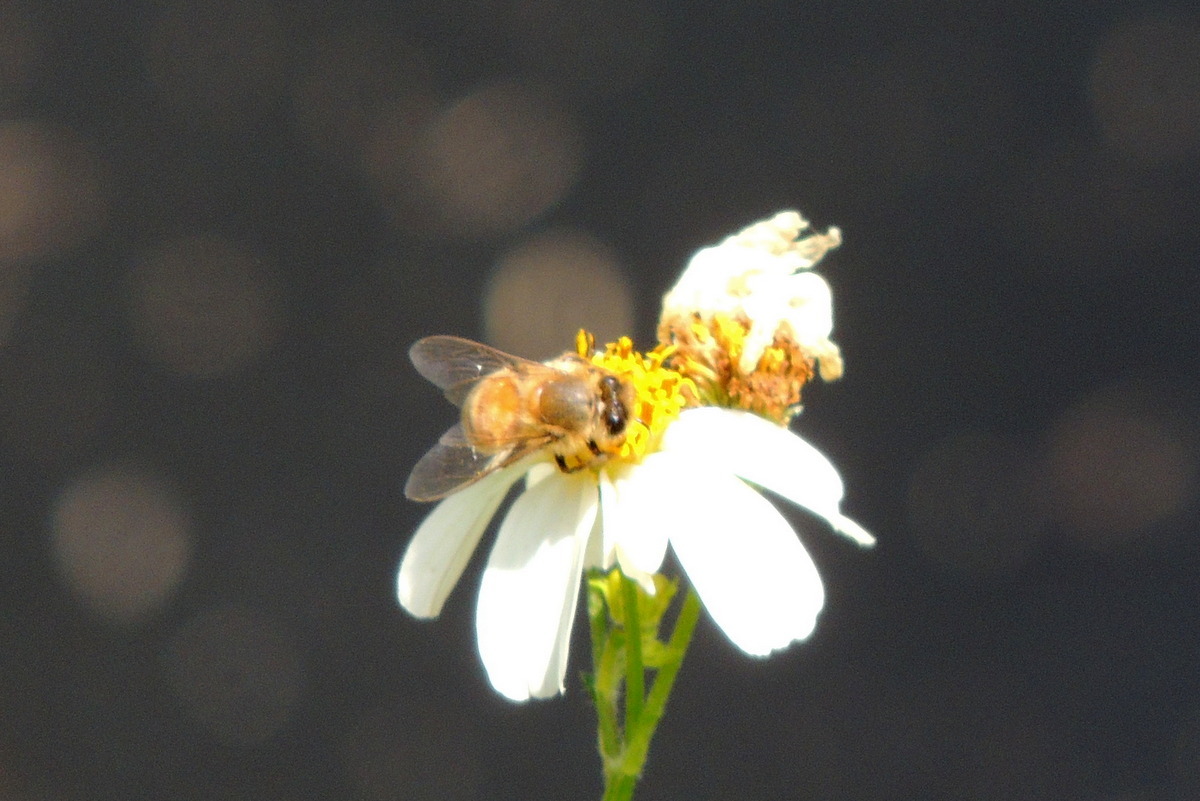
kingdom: Animalia
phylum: Arthropoda
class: Insecta
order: Hymenoptera
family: Apidae
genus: Apis
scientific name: Apis mellifera
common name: Honey bee
